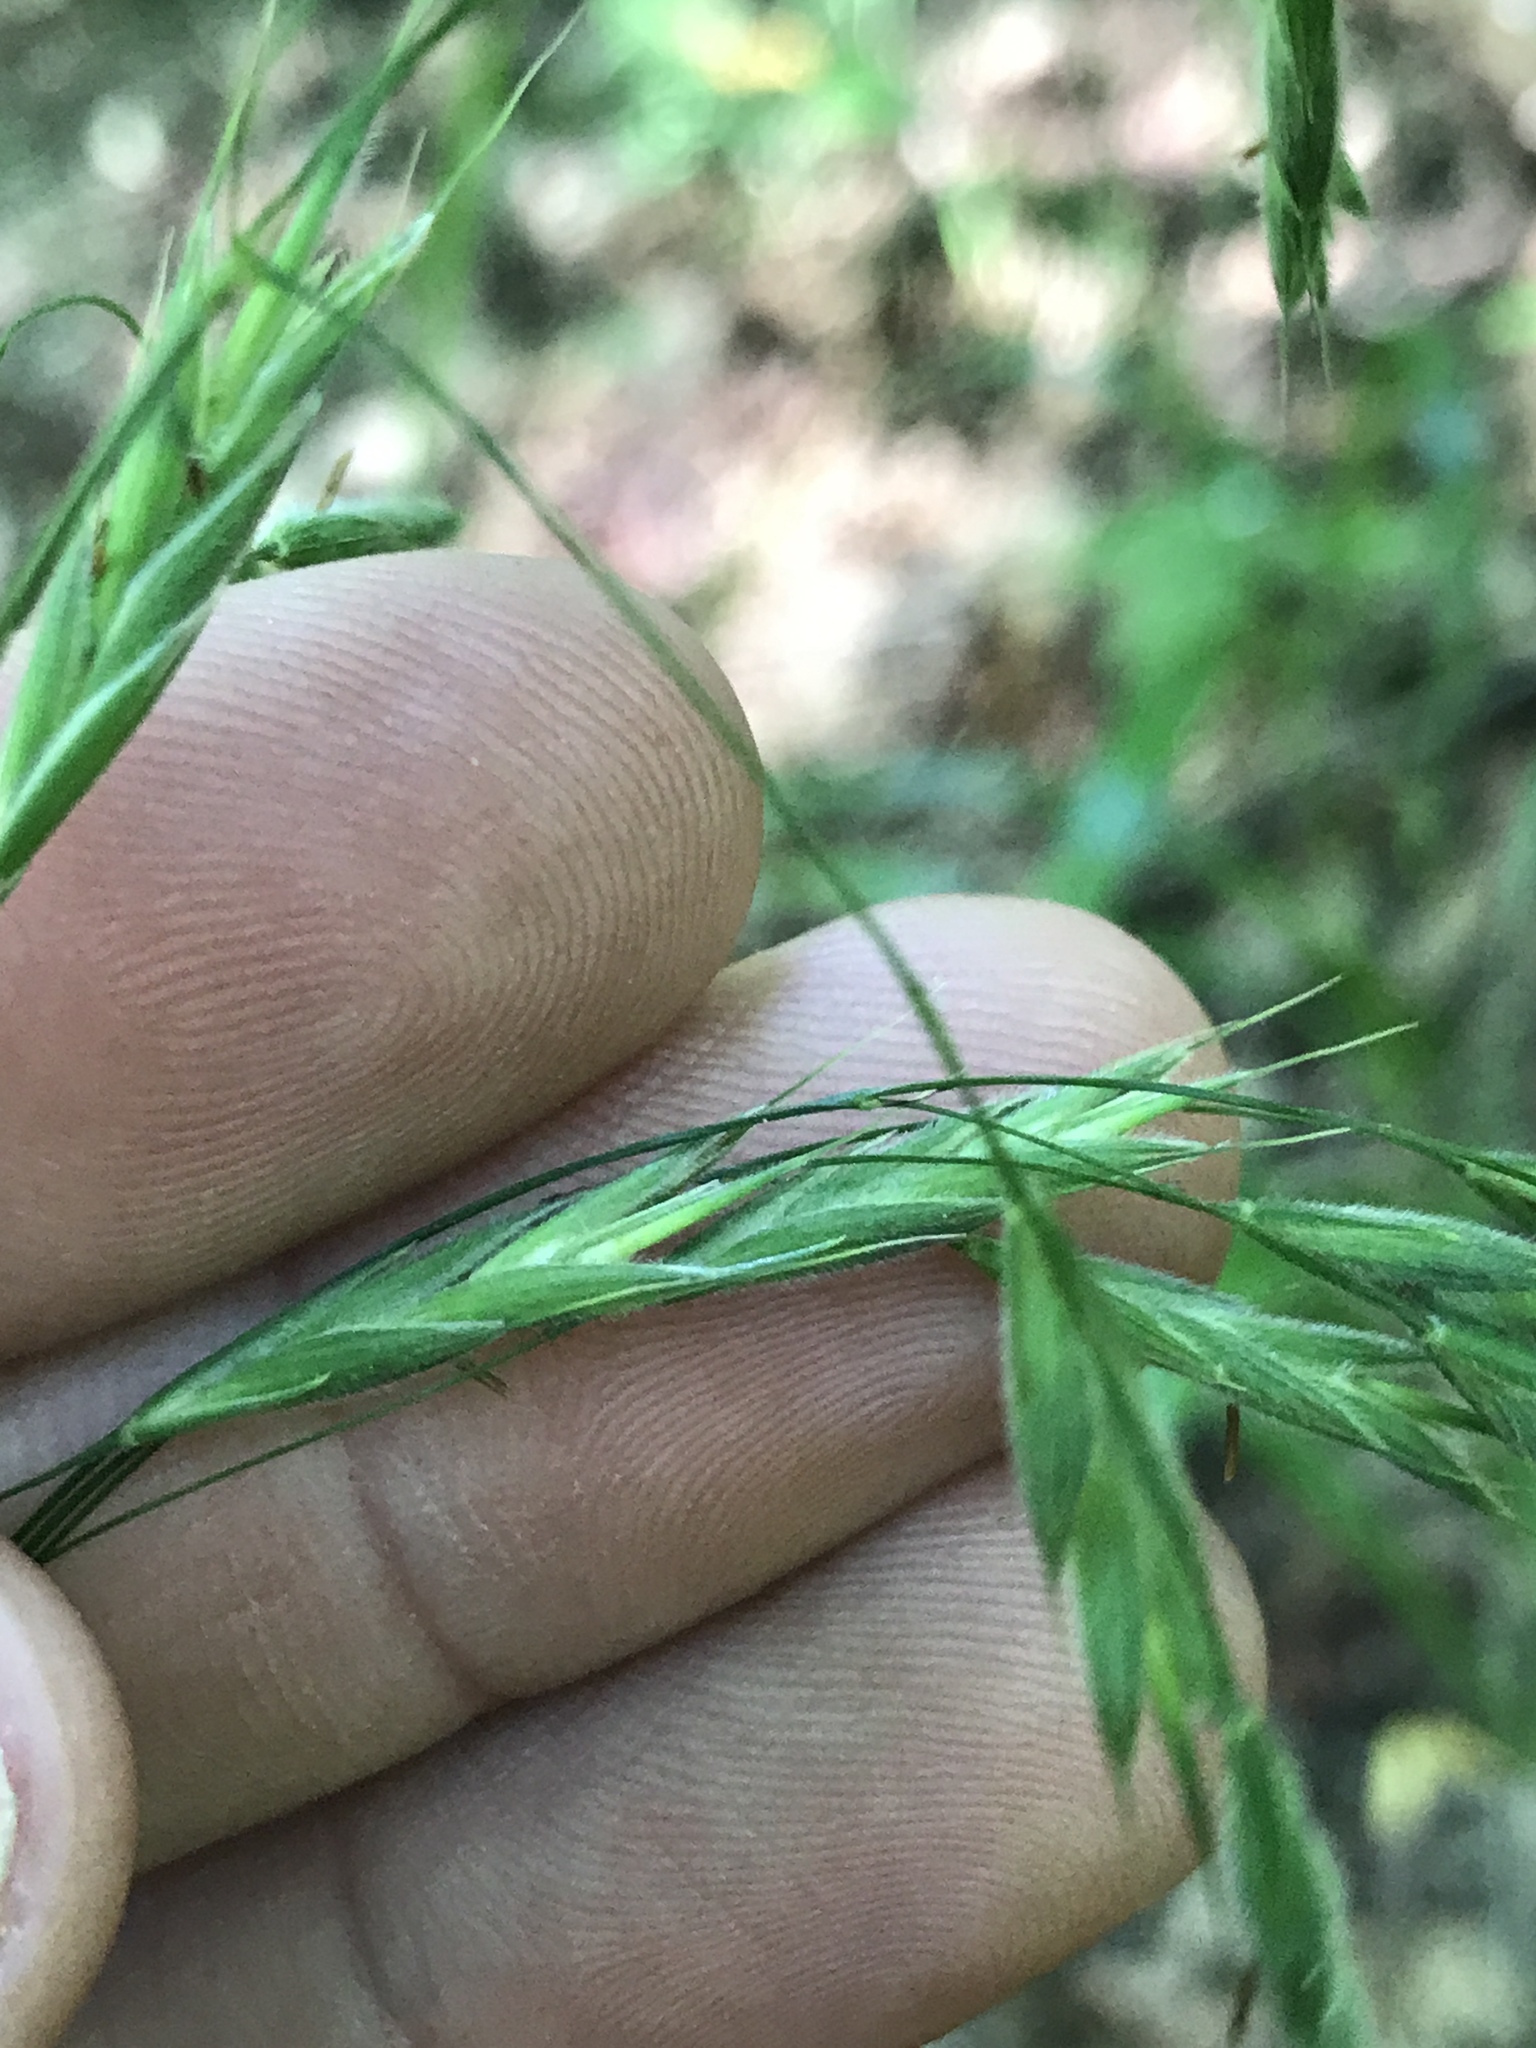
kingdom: Plantae
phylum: Tracheophyta
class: Liliopsida
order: Poales
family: Poaceae
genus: Bromus
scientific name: Bromus ciliatus
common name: Fringe brome
